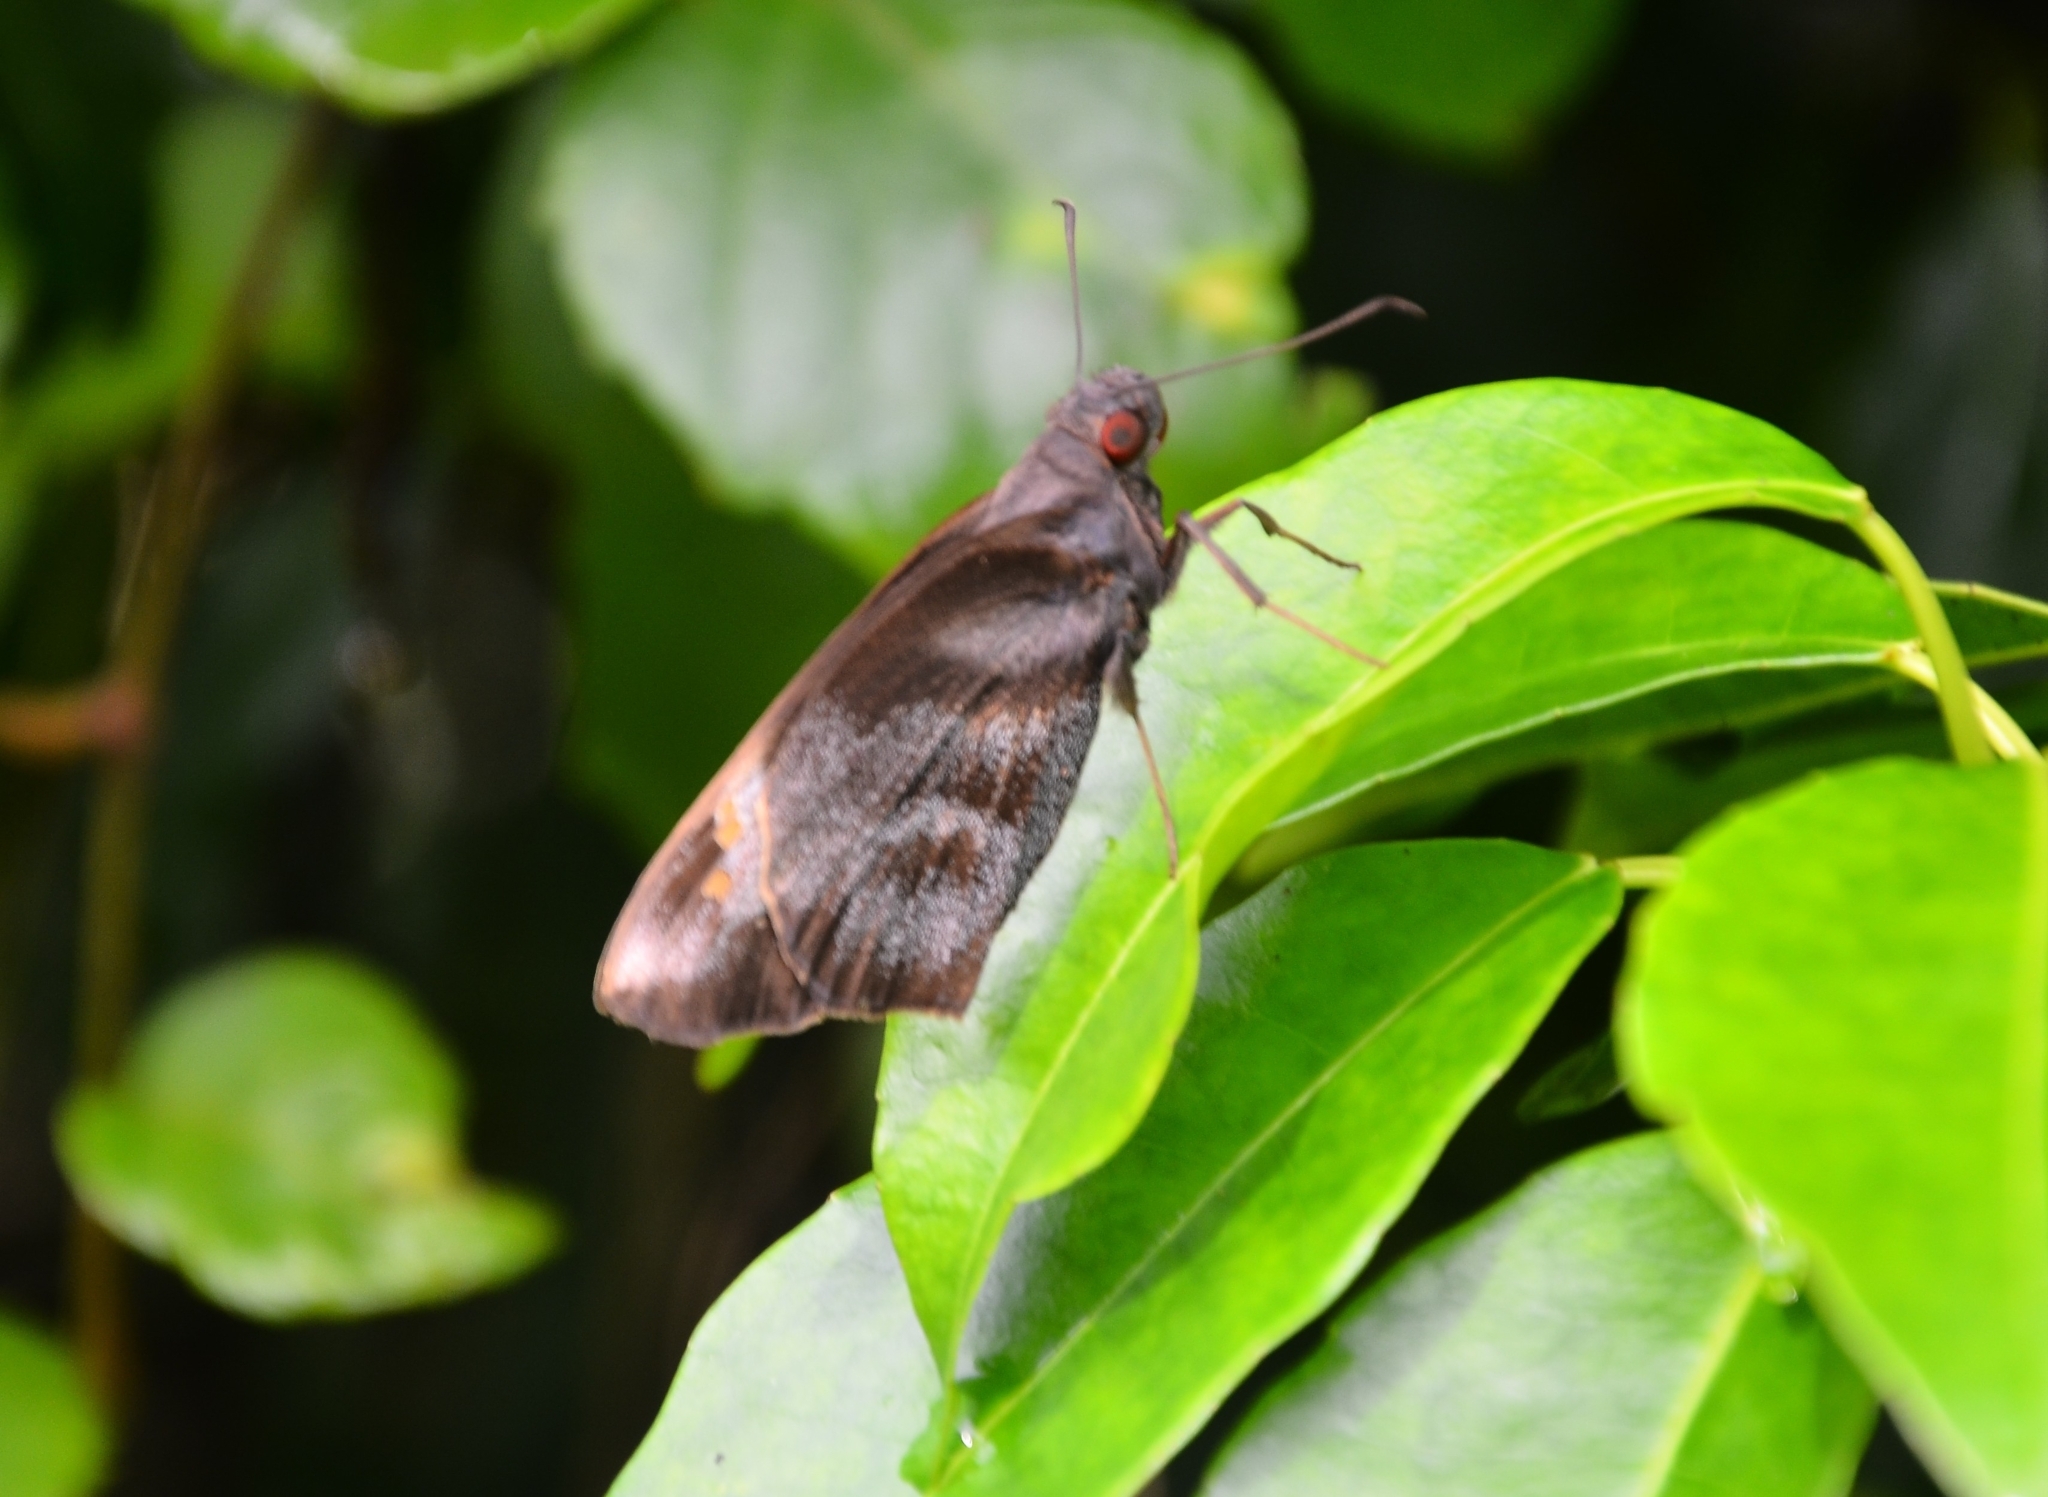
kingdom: Animalia
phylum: Arthropoda
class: Insecta
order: Lepidoptera
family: Hesperiidae
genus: Gangara
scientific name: Gangara thyrsis
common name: Giant redeye
